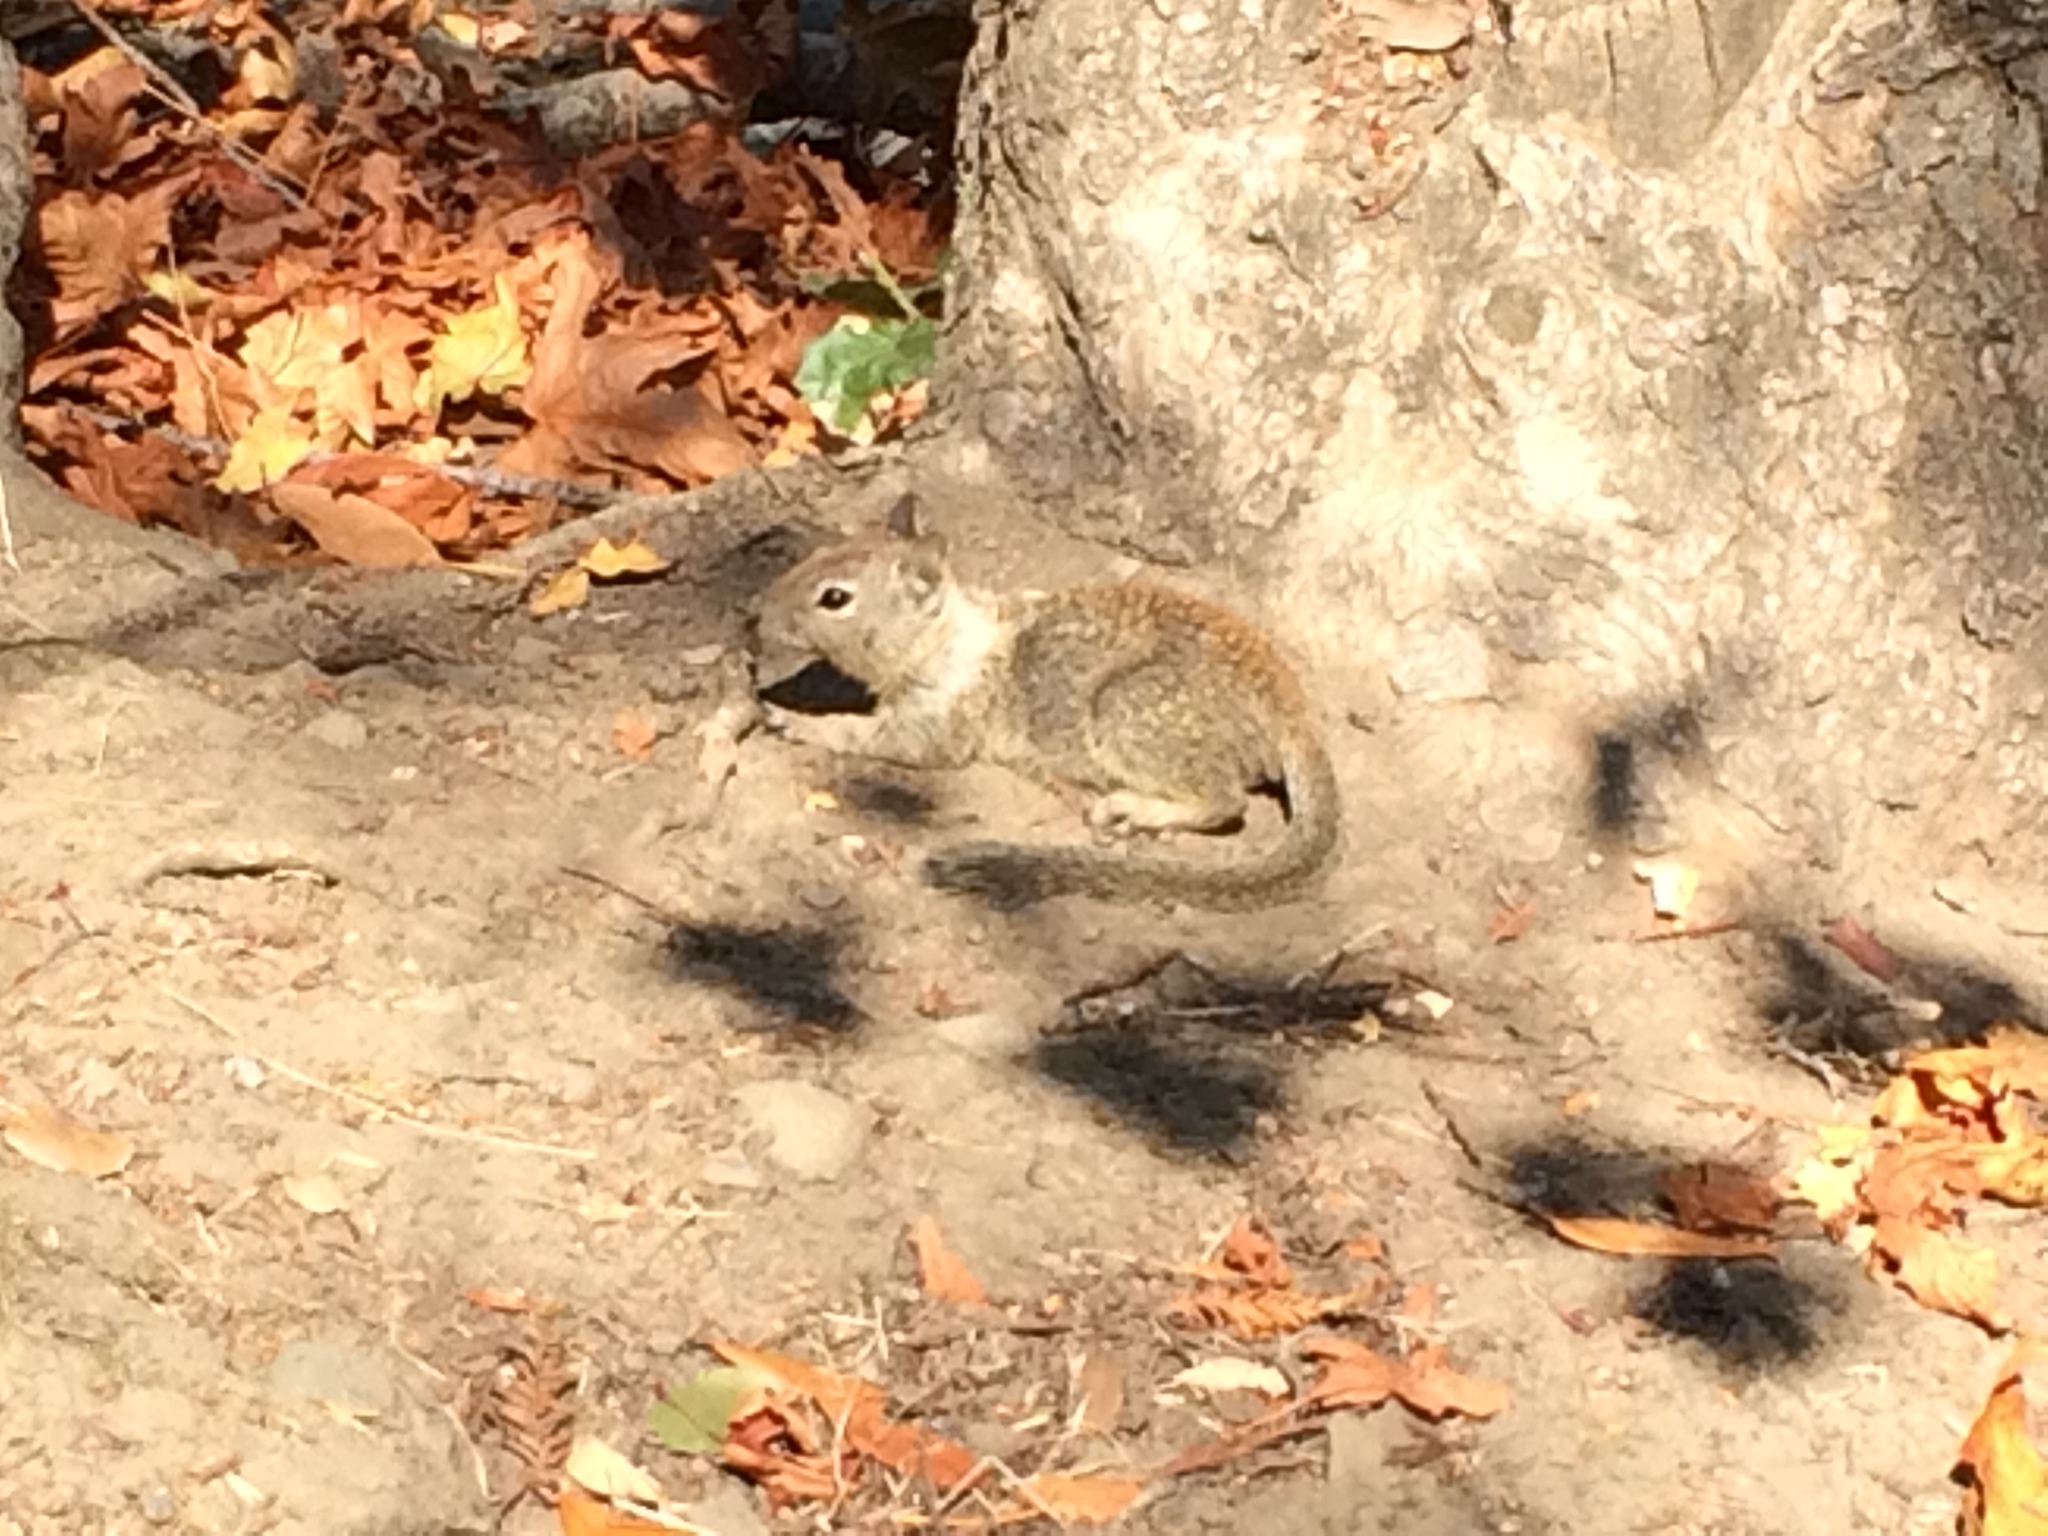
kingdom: Animalia
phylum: Chordata
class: Mammalia
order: Rodentia
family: Sciuridae
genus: Otospermophilus
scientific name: Otospermophilus beecheyi
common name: California ground squirrel
